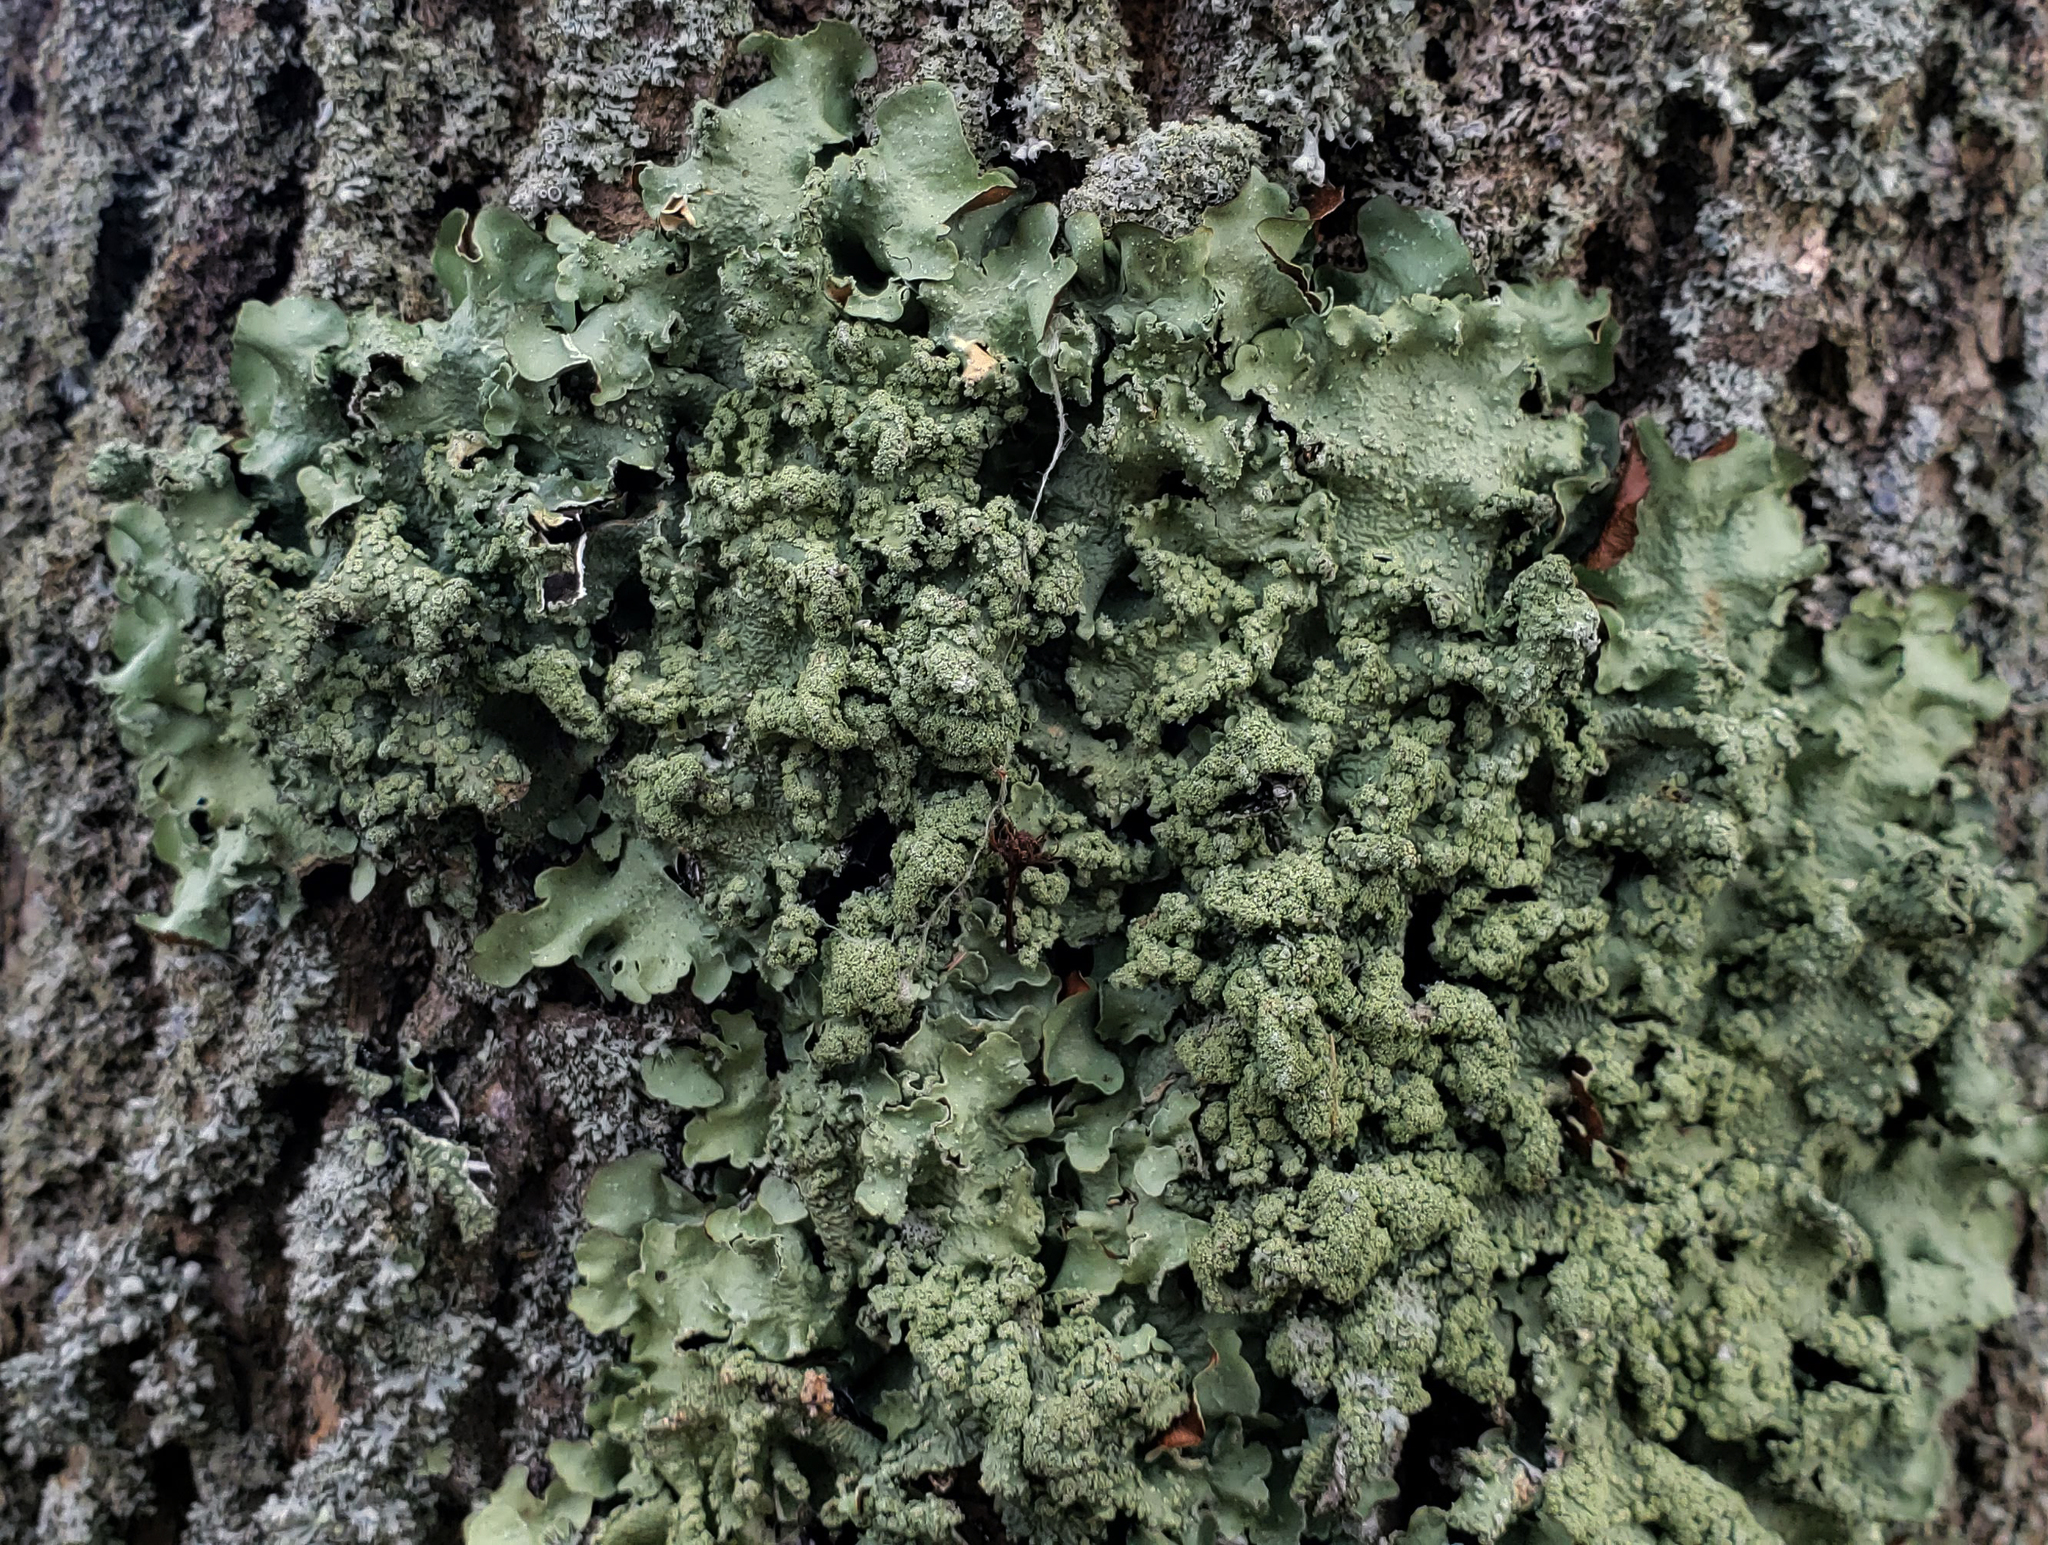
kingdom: Fungi
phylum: Ascomycota
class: Lecanoromycetes
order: Lecanorales
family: Parmeliaceae
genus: Flavopunctelia
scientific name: Flavopunctelia flaventior
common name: Speckled greenshield
